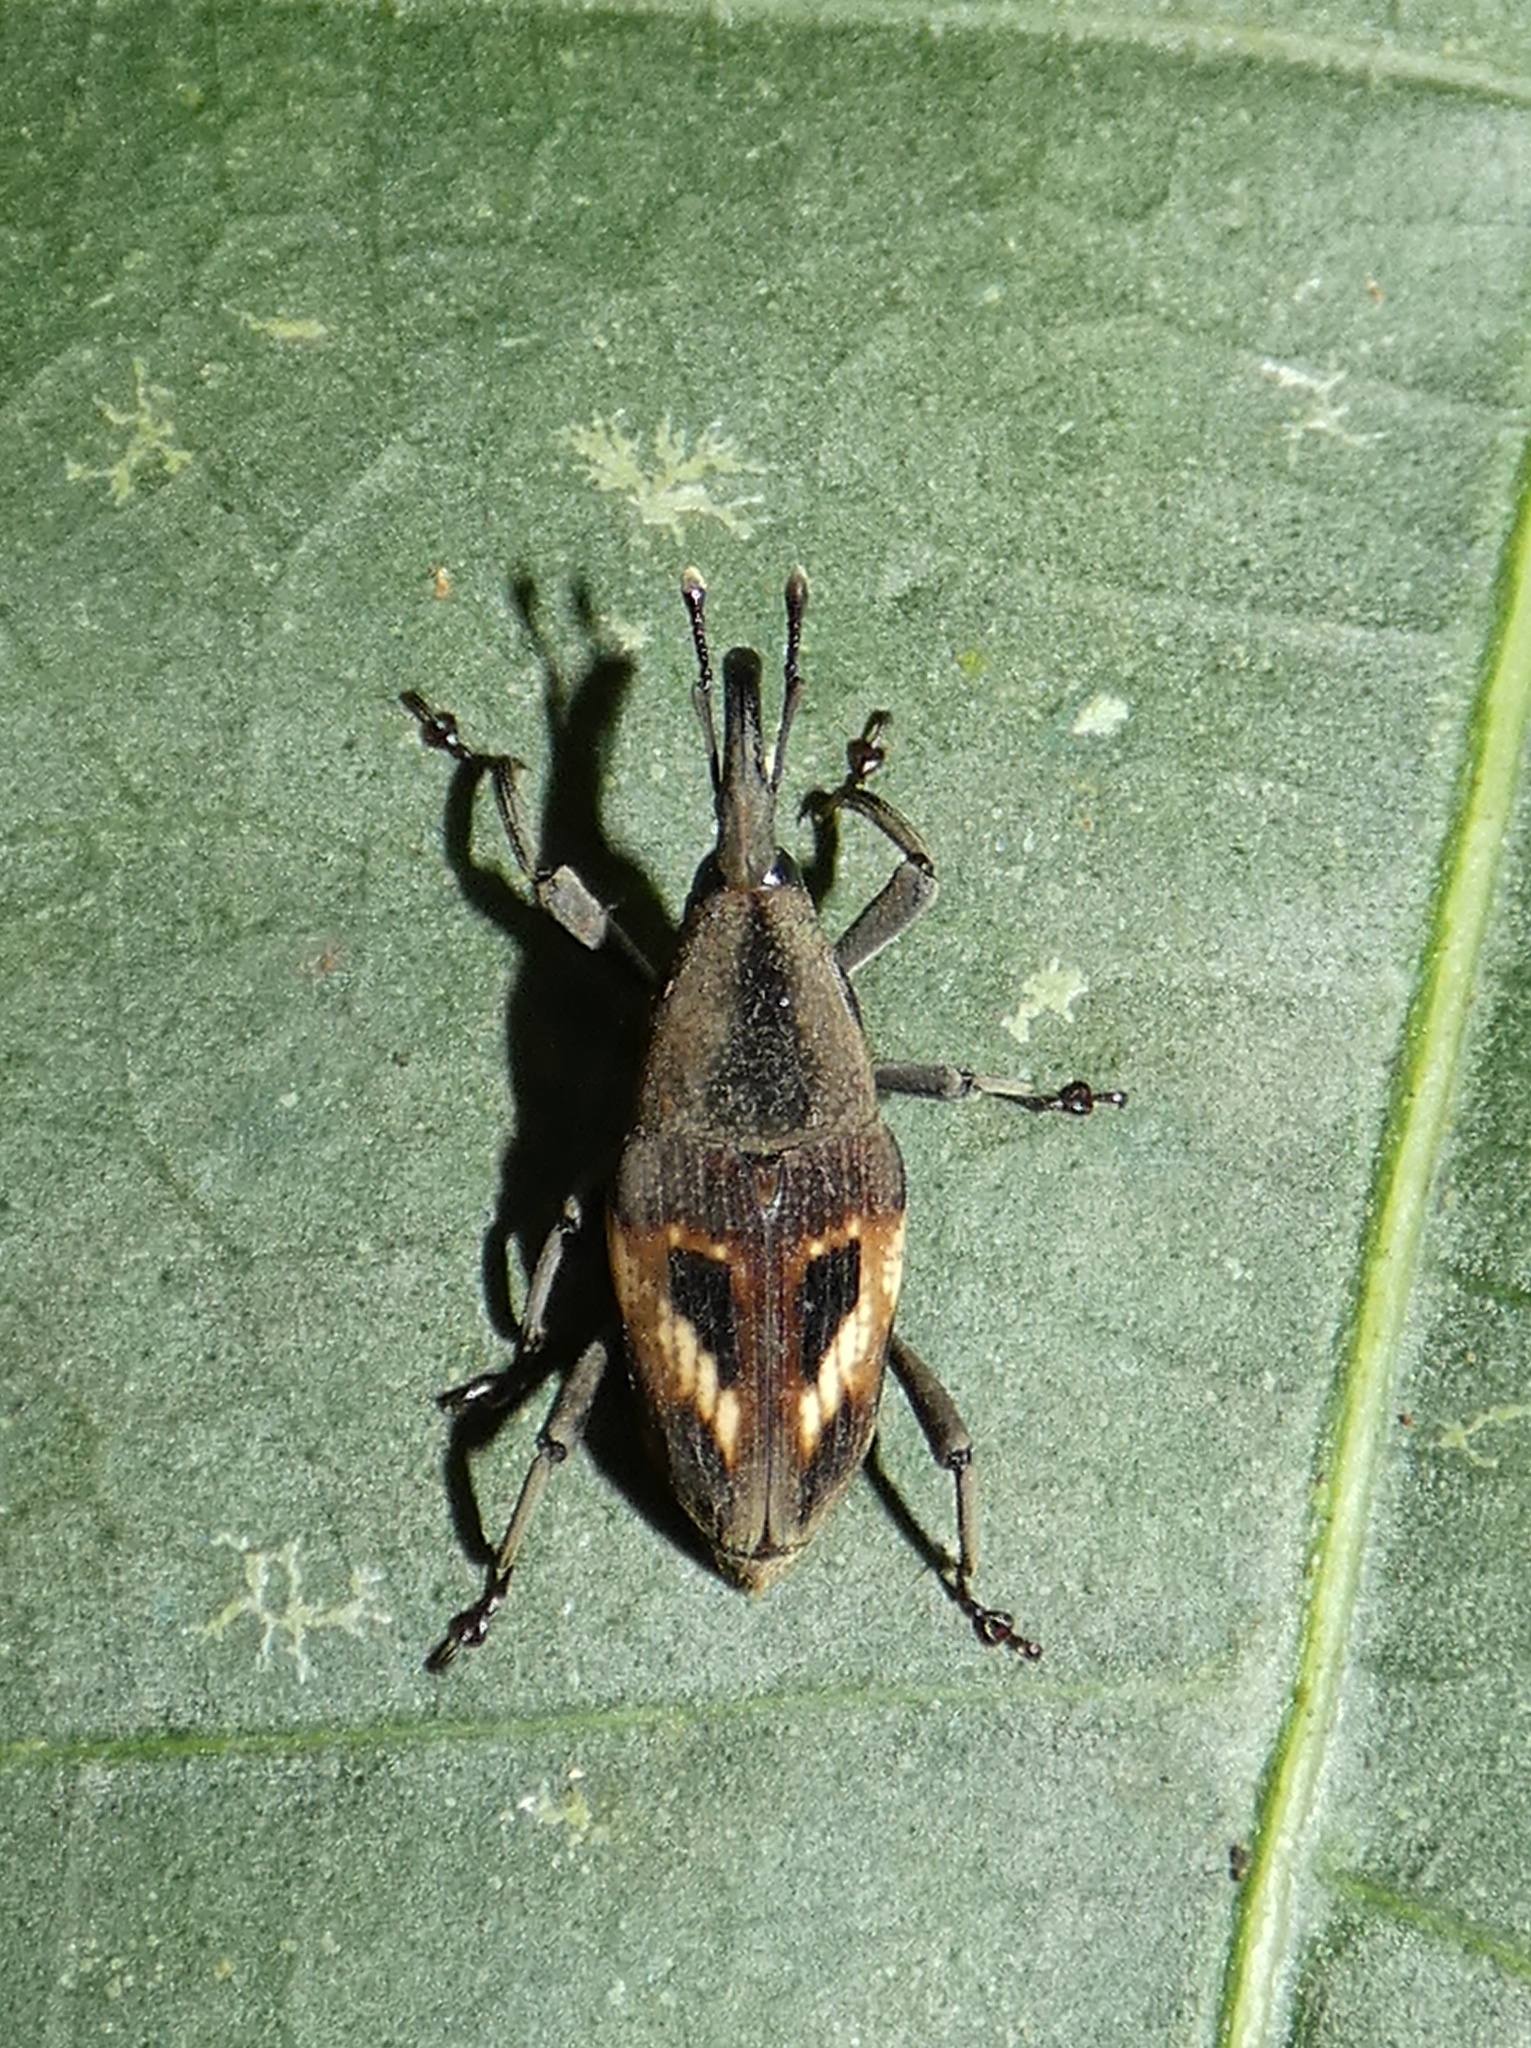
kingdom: Animalia
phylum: Arthropoda
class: Insecta
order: Coleoptera
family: Dryophthoridae
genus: Cactophagus
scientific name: Cactophagus miniatopunctatus
